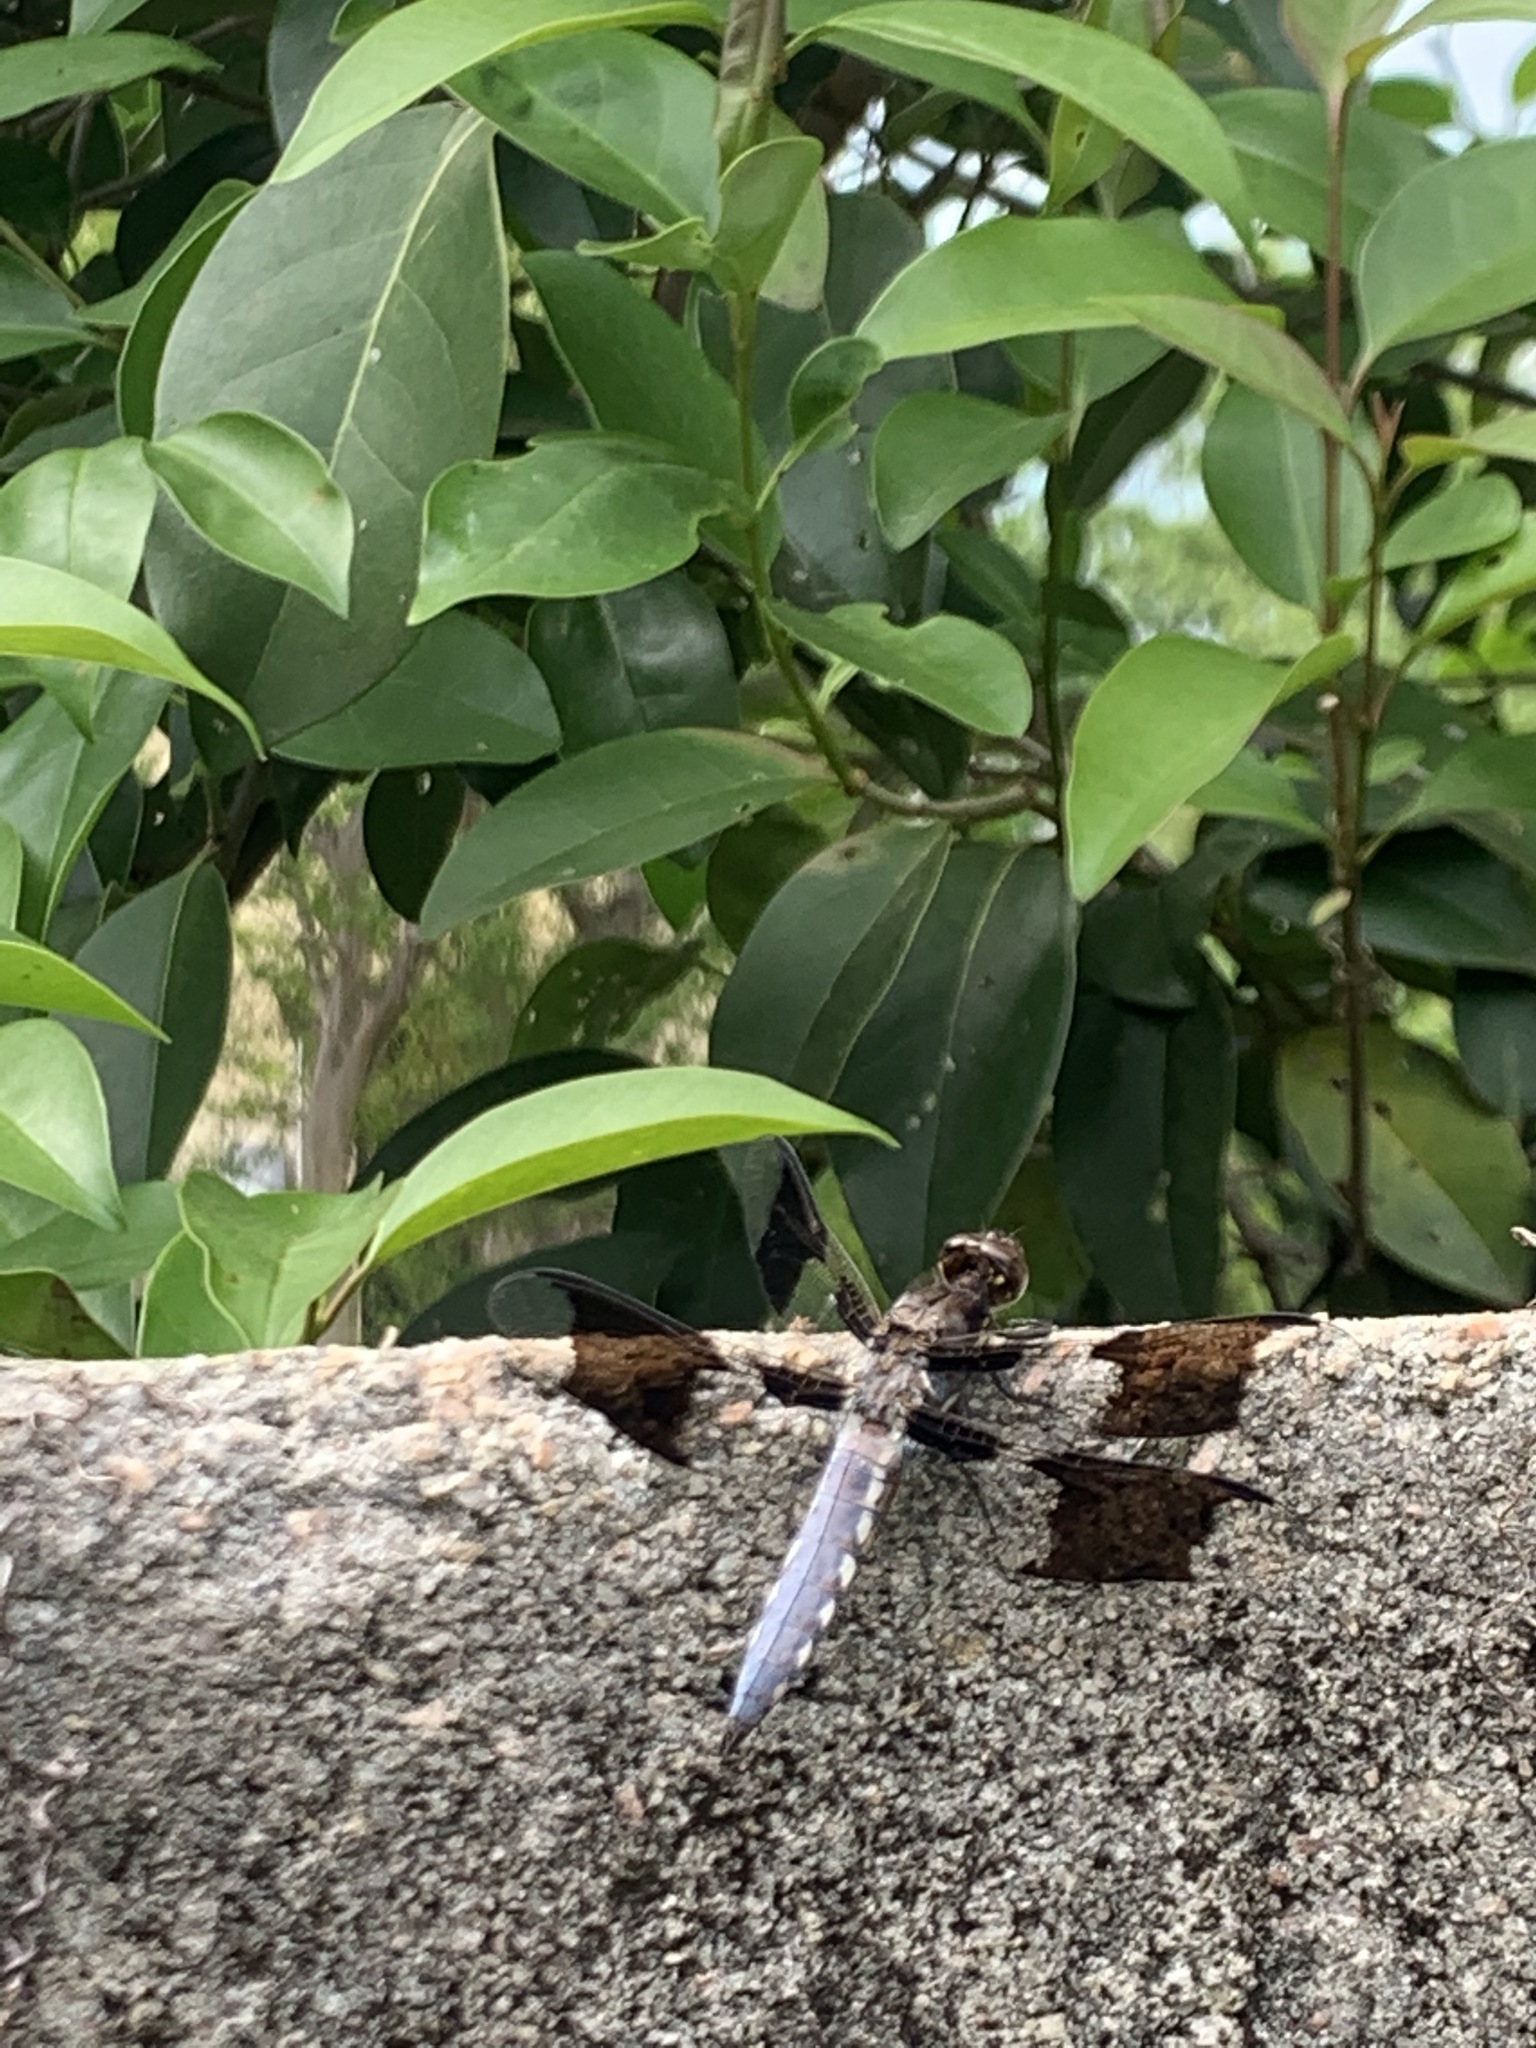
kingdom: Animalia
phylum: Arthropoda
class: Insecta
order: Odonata
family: Libellulidae
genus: Plathemis
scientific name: Plathemis lydia
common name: Common whitetail
